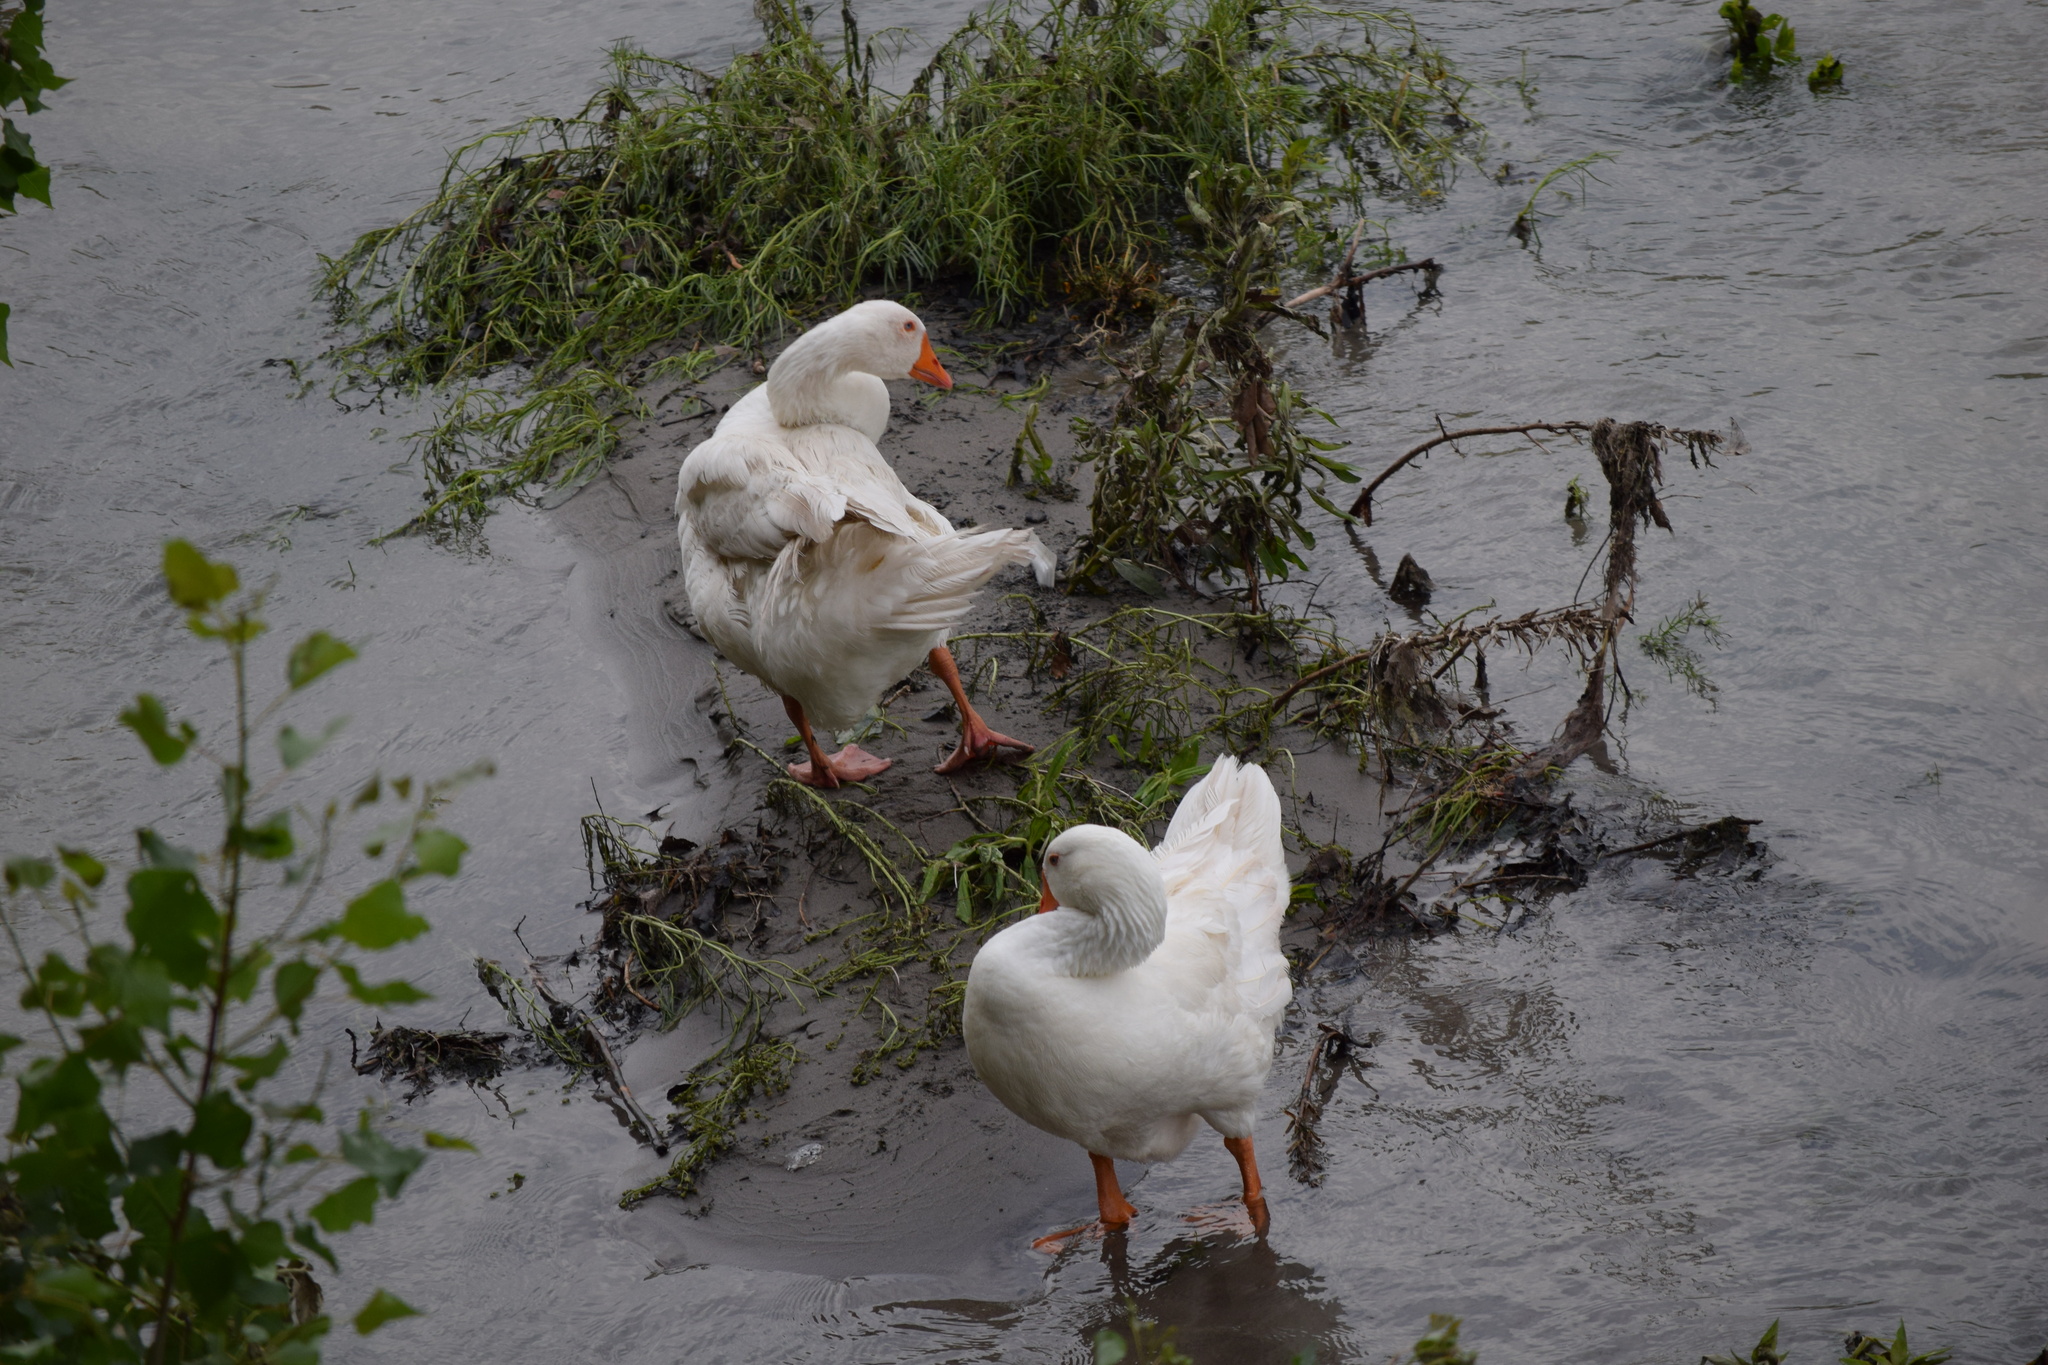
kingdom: Animalia
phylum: Chordata
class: Aves
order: Anseriformes
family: Anatidae
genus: Anser
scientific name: Anser anser
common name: Greylag goose
